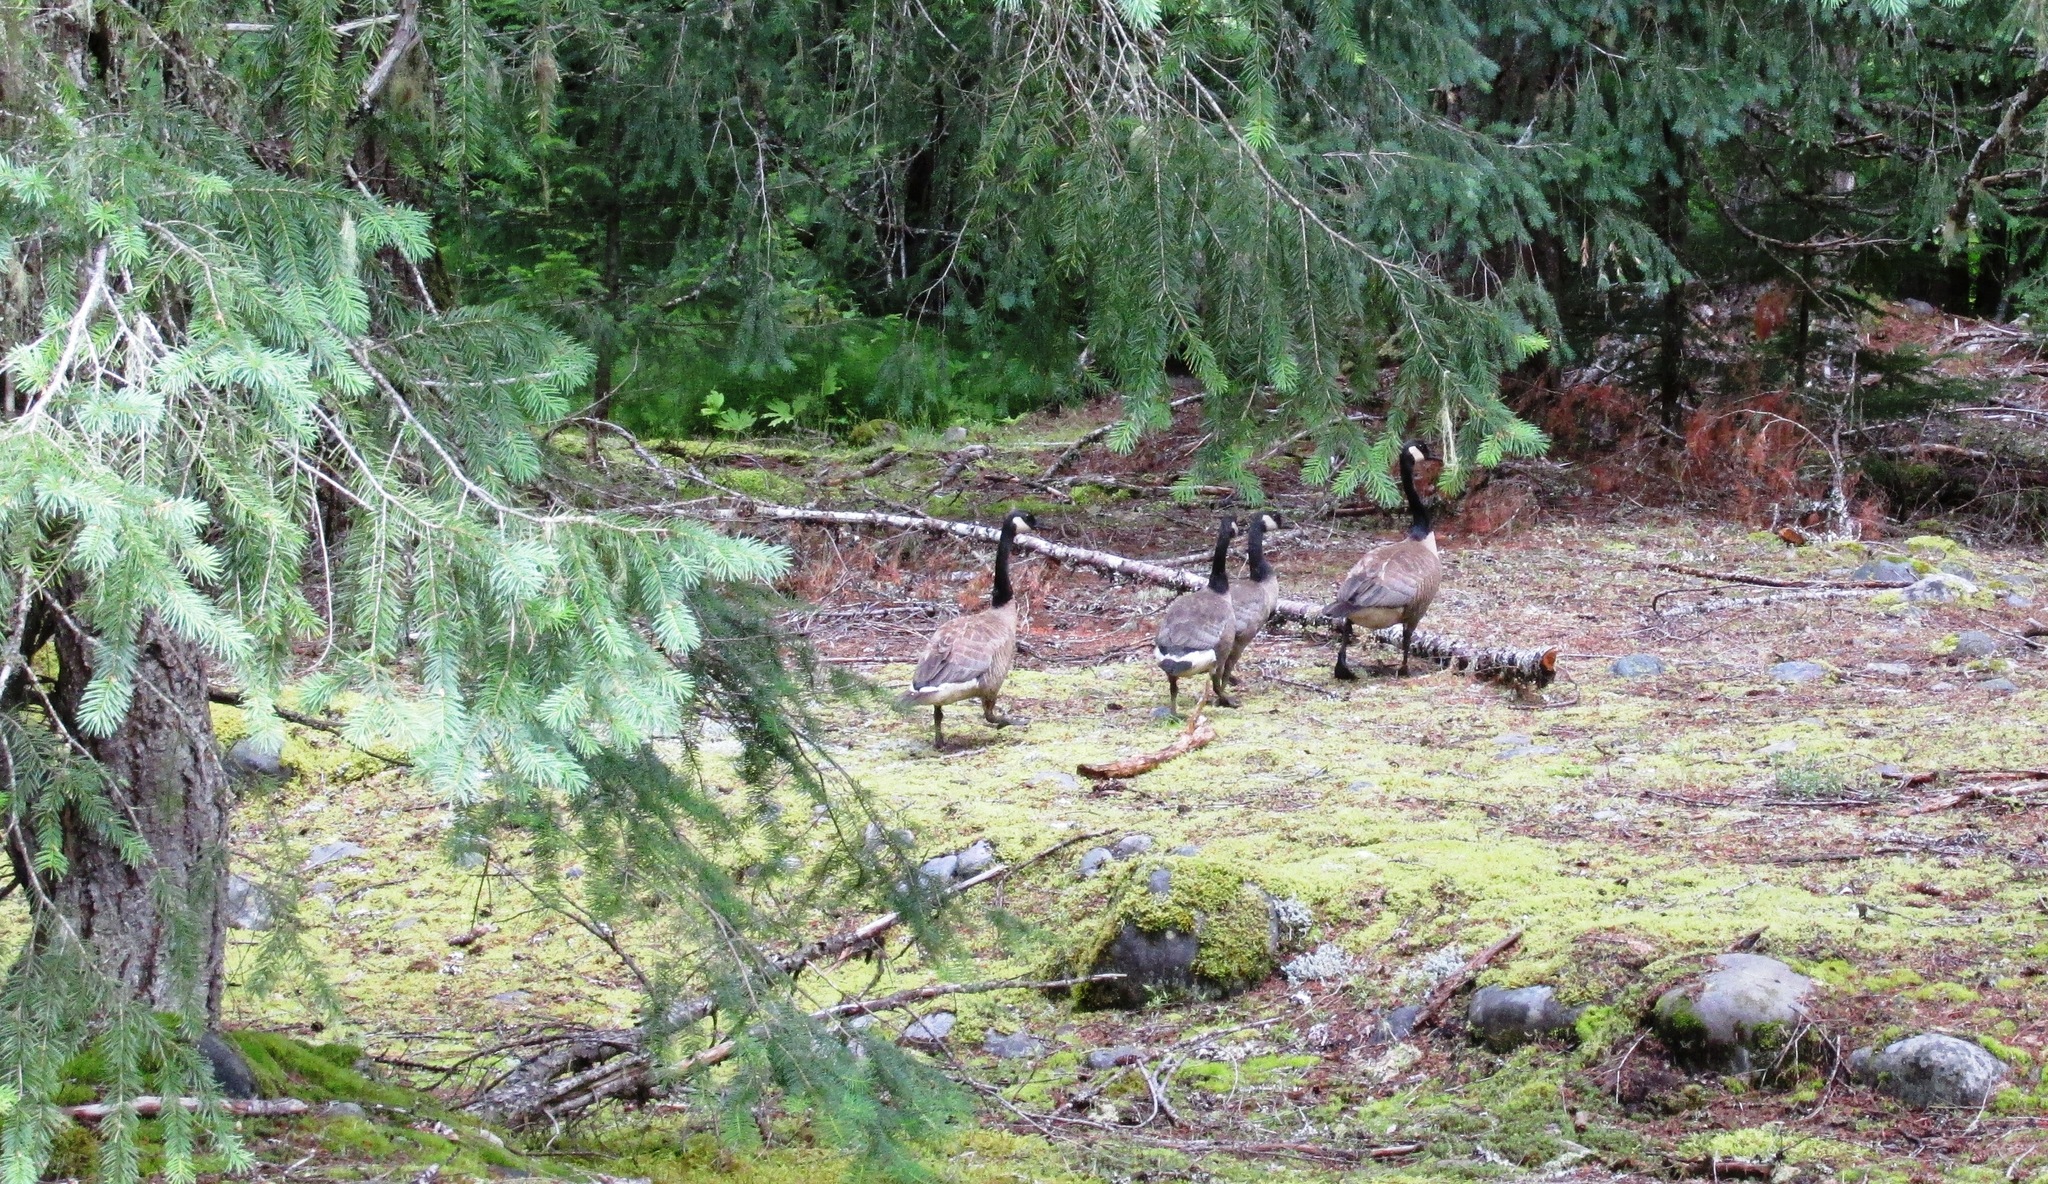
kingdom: Animalia
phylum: Chordata
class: Aves
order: Anseriformes
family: Anatidae
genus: Branta
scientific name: Branta canadensis
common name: Canada goose
